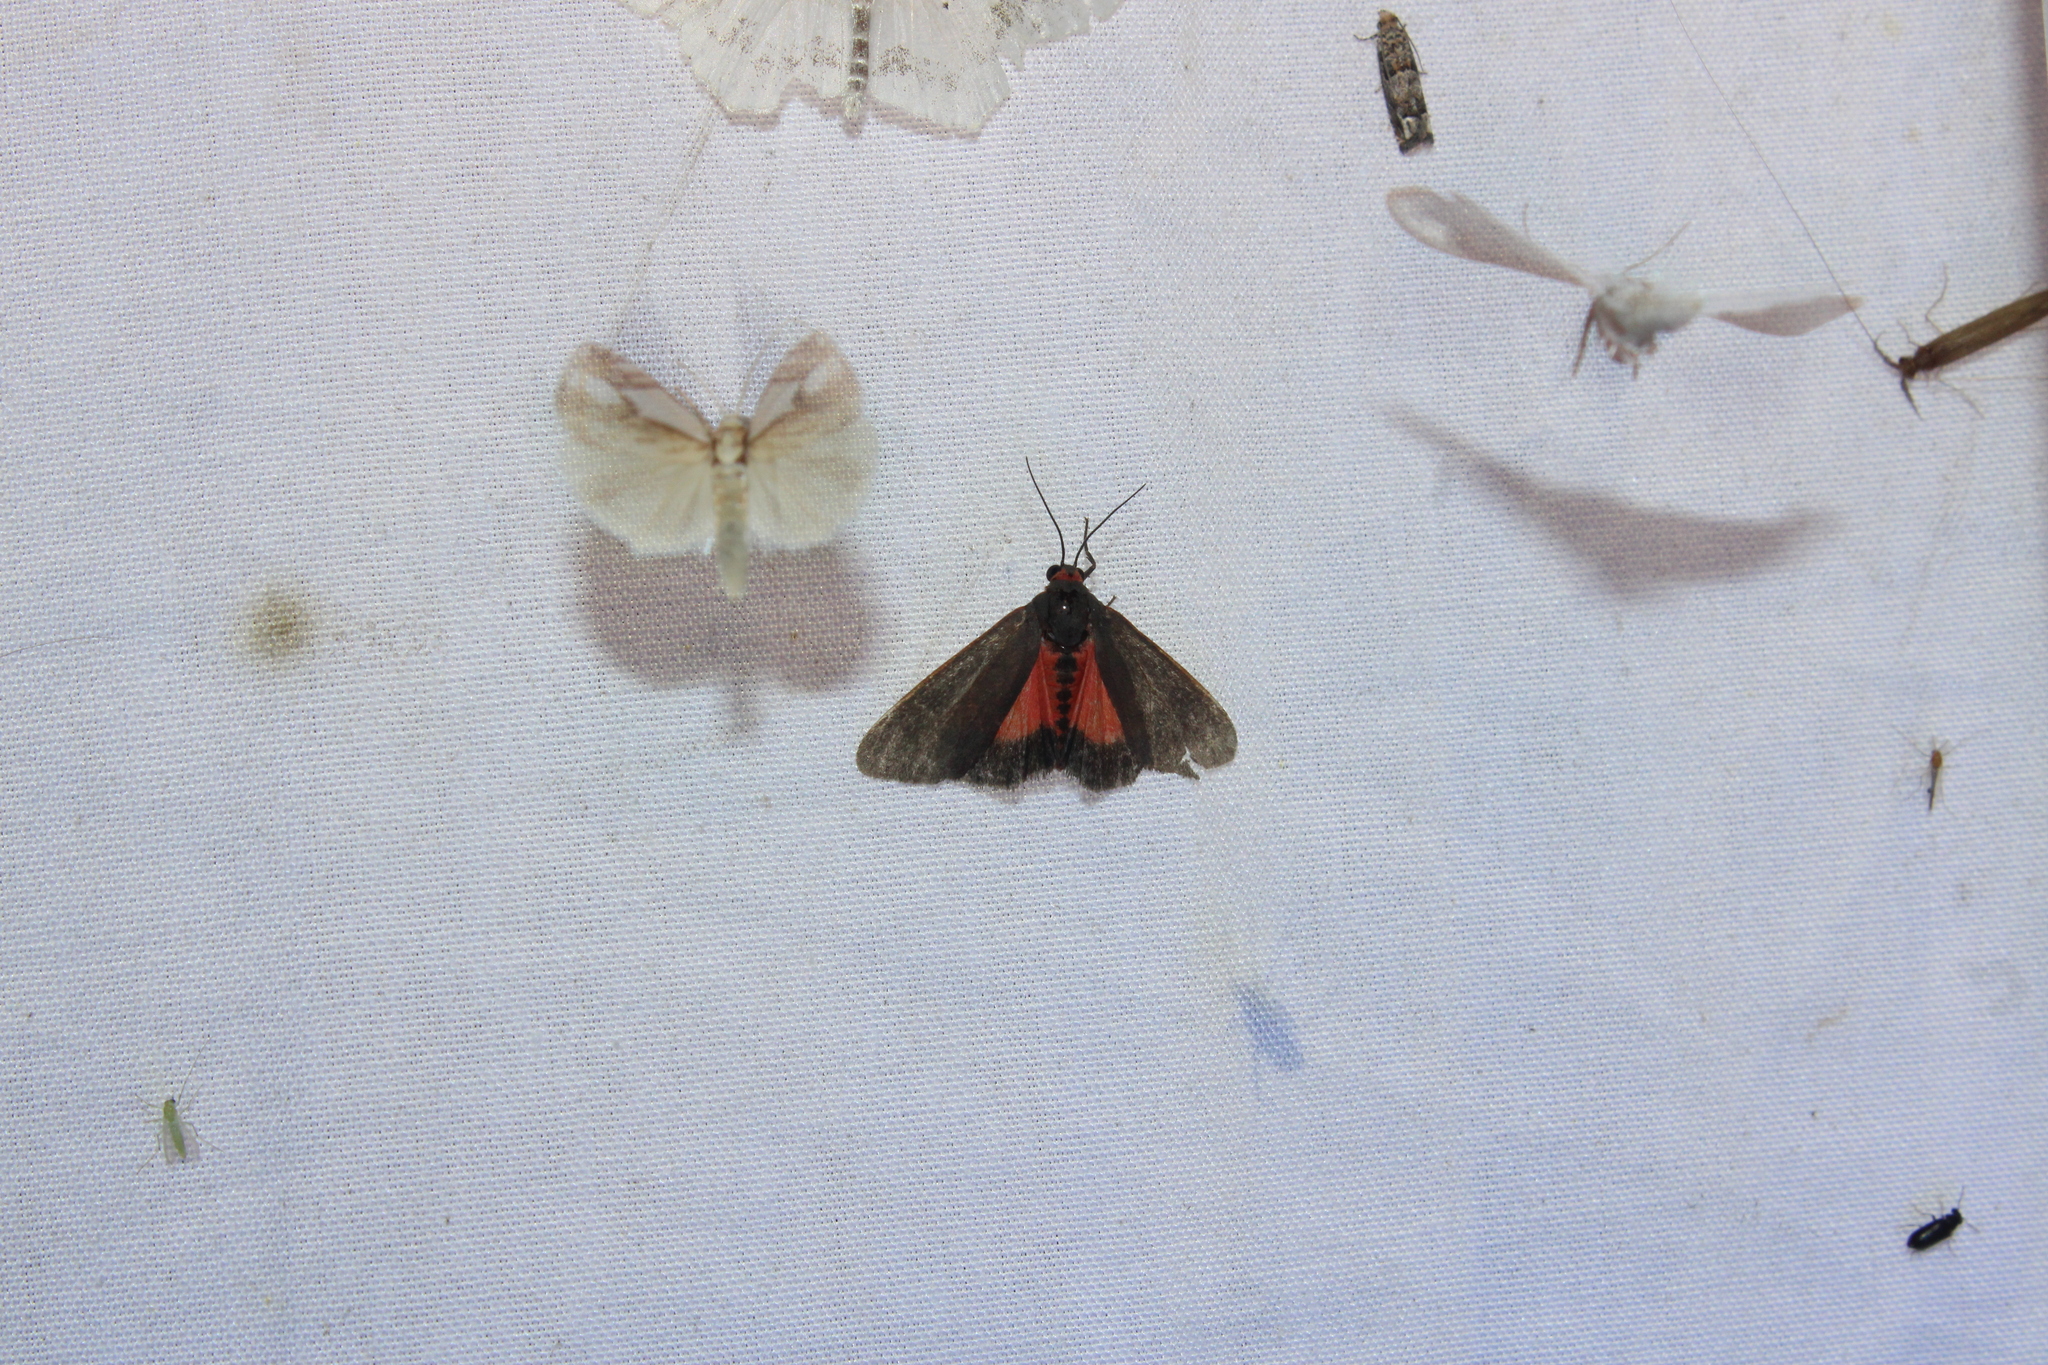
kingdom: Animalia
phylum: Arthropoda
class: Insecta
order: Lepidoptera
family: Erebidae
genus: Virbia
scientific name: Virbia laeta
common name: Joyful holomelina moth
